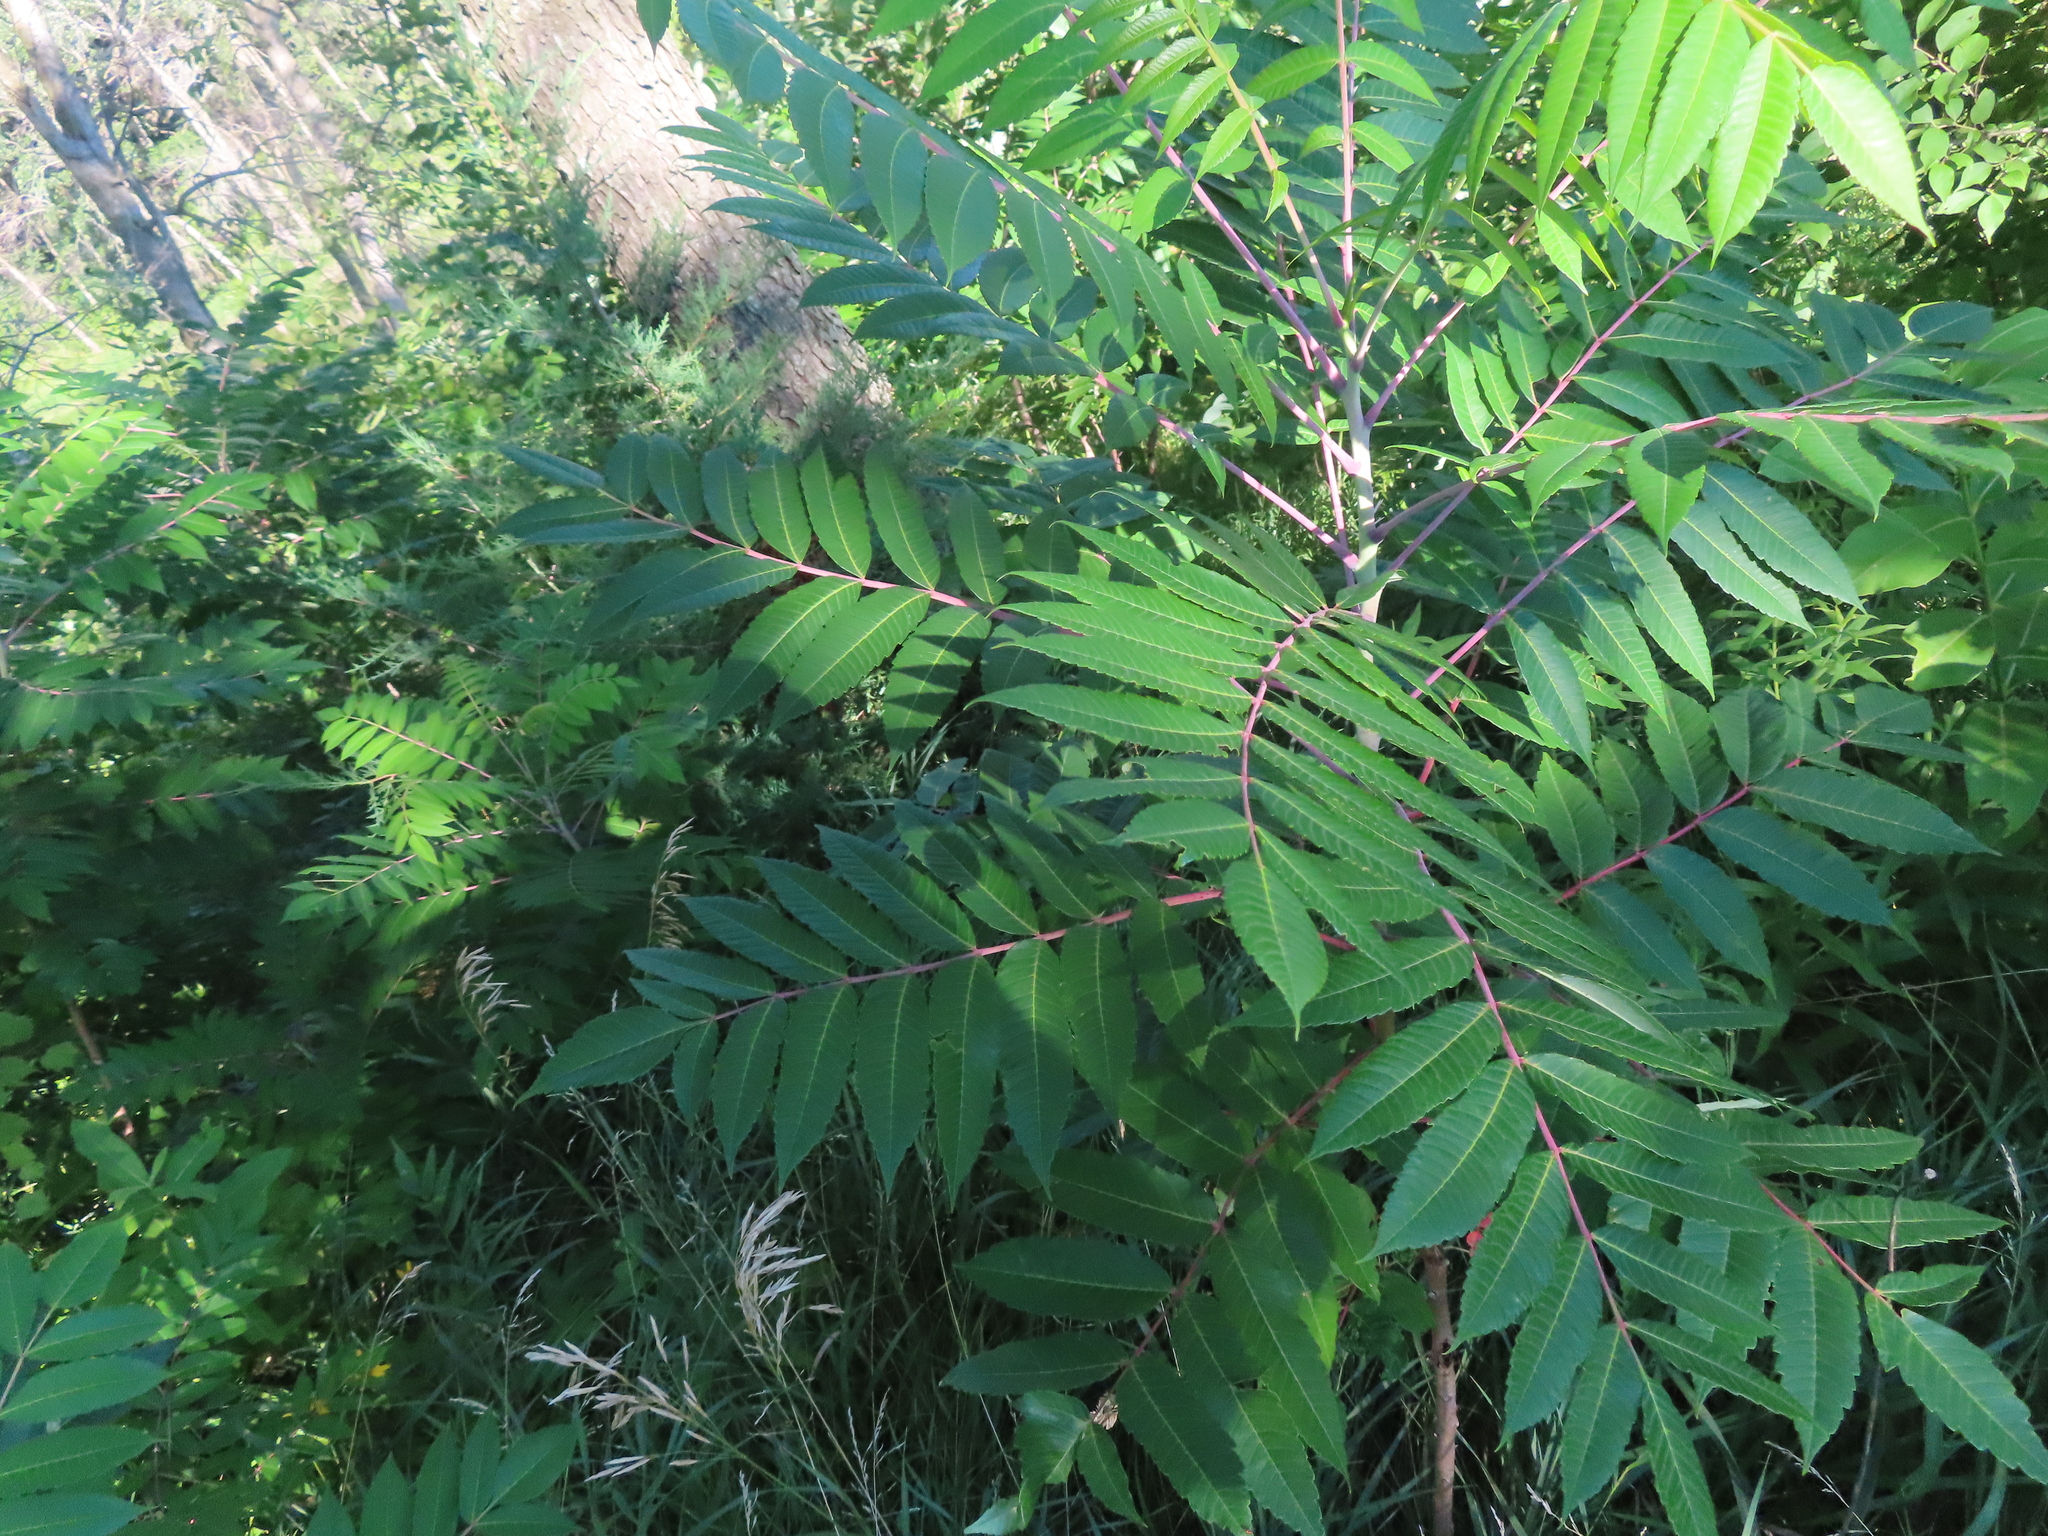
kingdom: Plantae
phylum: Tracheophyta
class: Magnoliopsida
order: Sapindales
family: Anacardiaceae
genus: Rhus
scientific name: Rhus glabra
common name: Scarlet sumac
